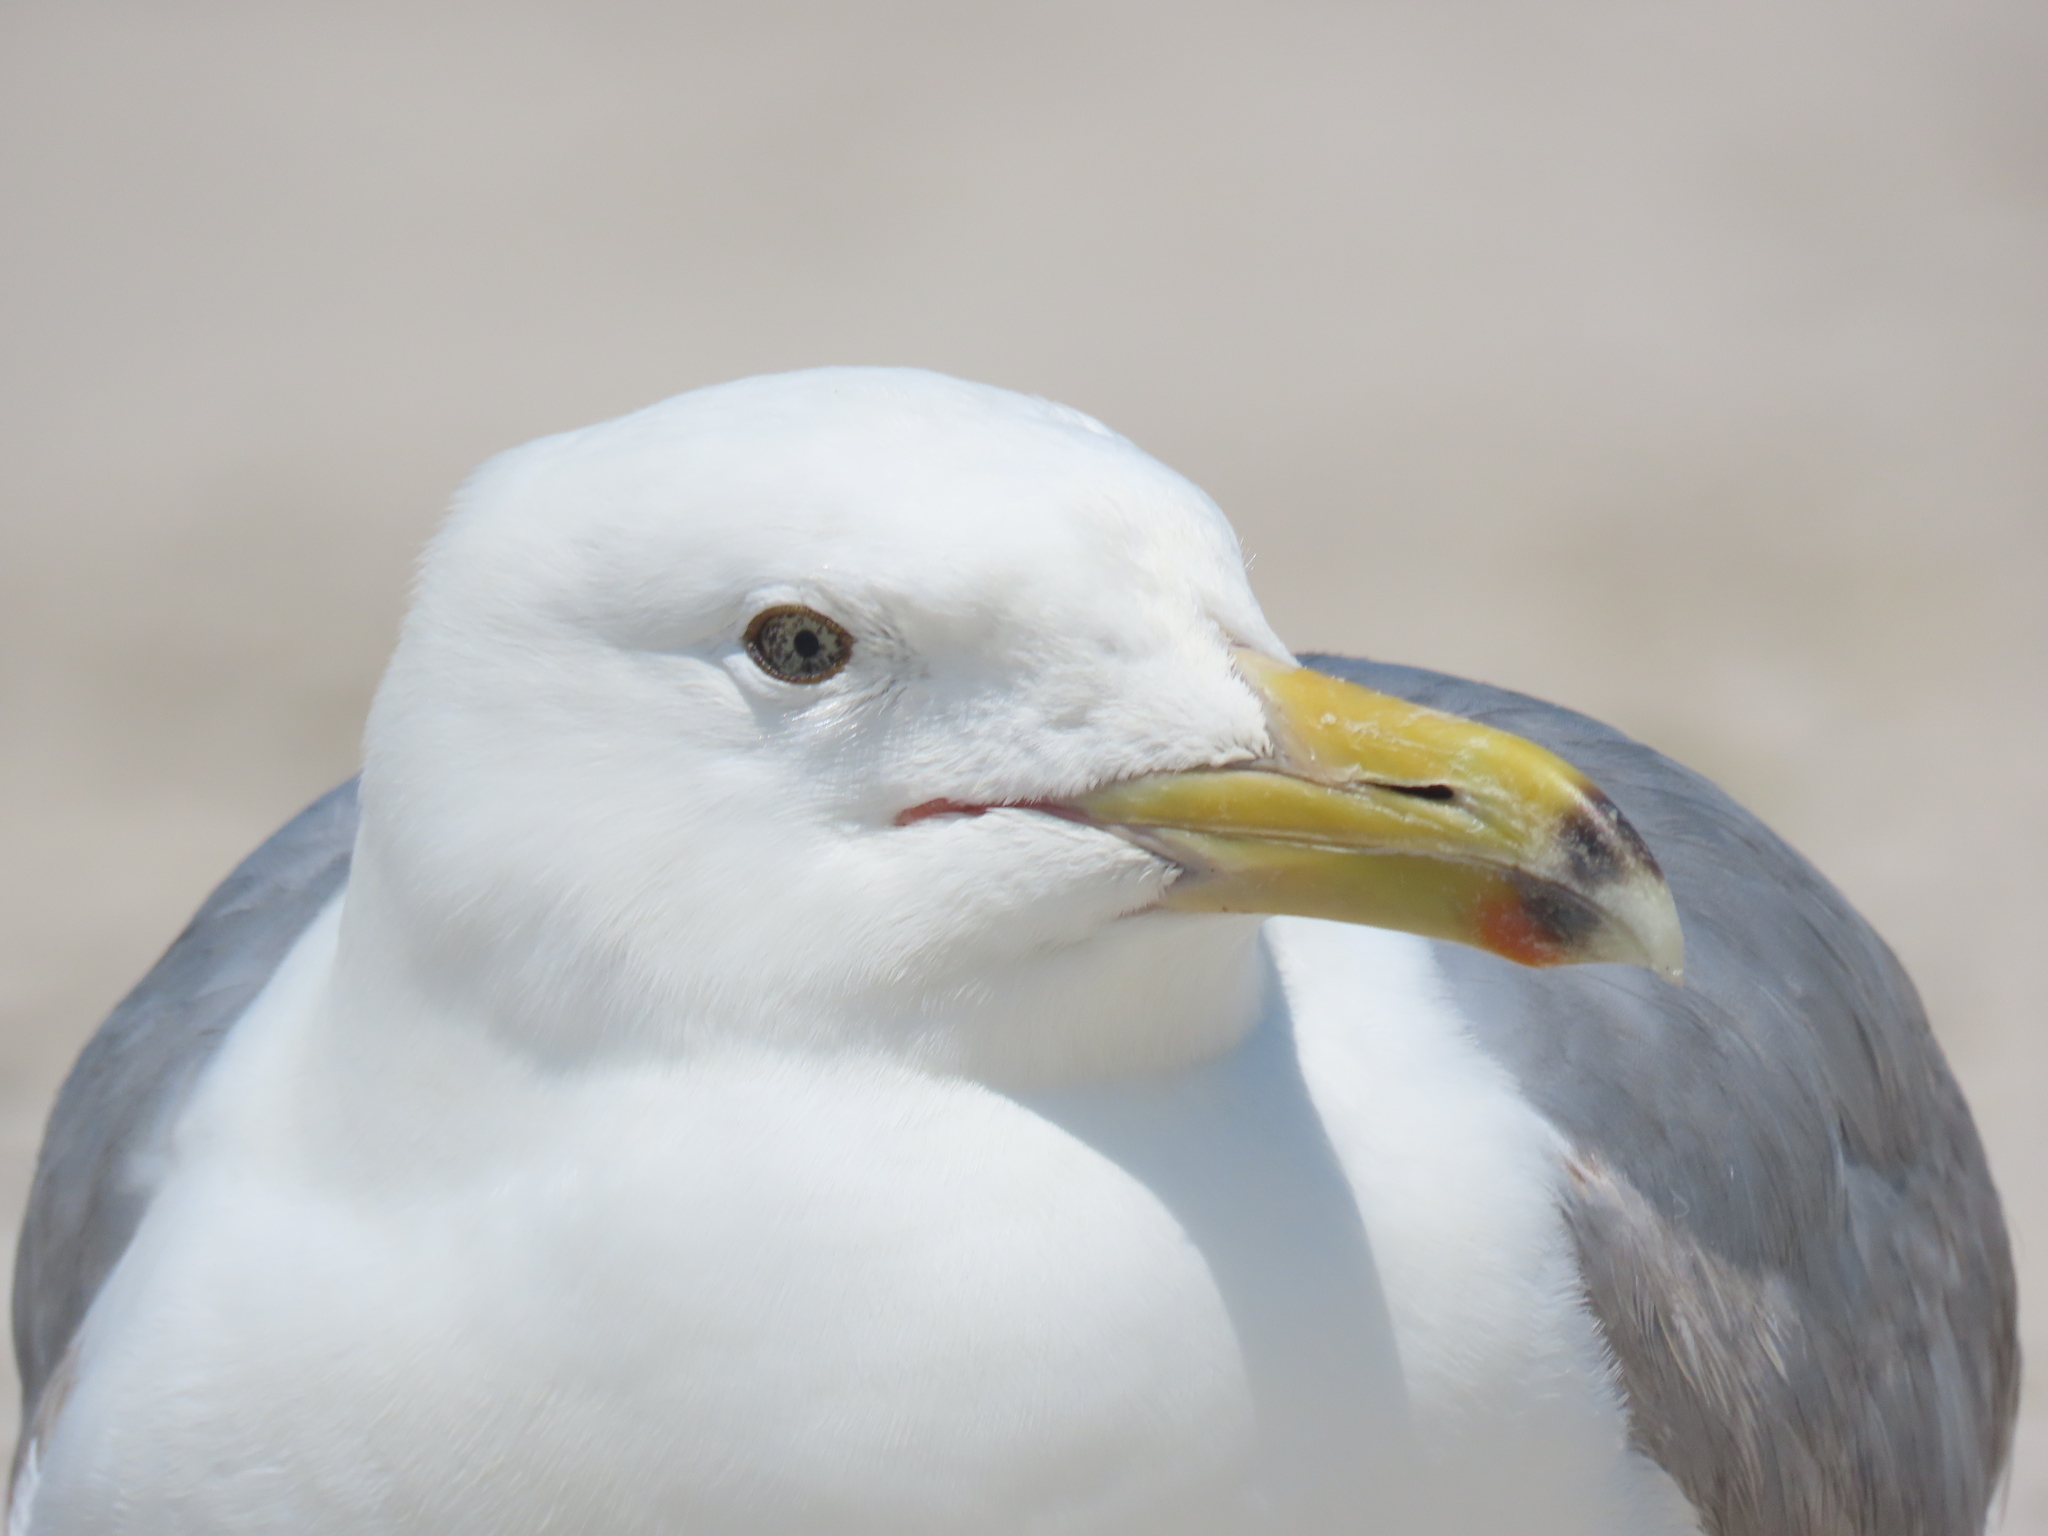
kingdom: Animalia
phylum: Chordata
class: Aves
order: Charadriiformes
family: Laridae
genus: Larus
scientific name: Larus argentatus
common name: Herring gull
